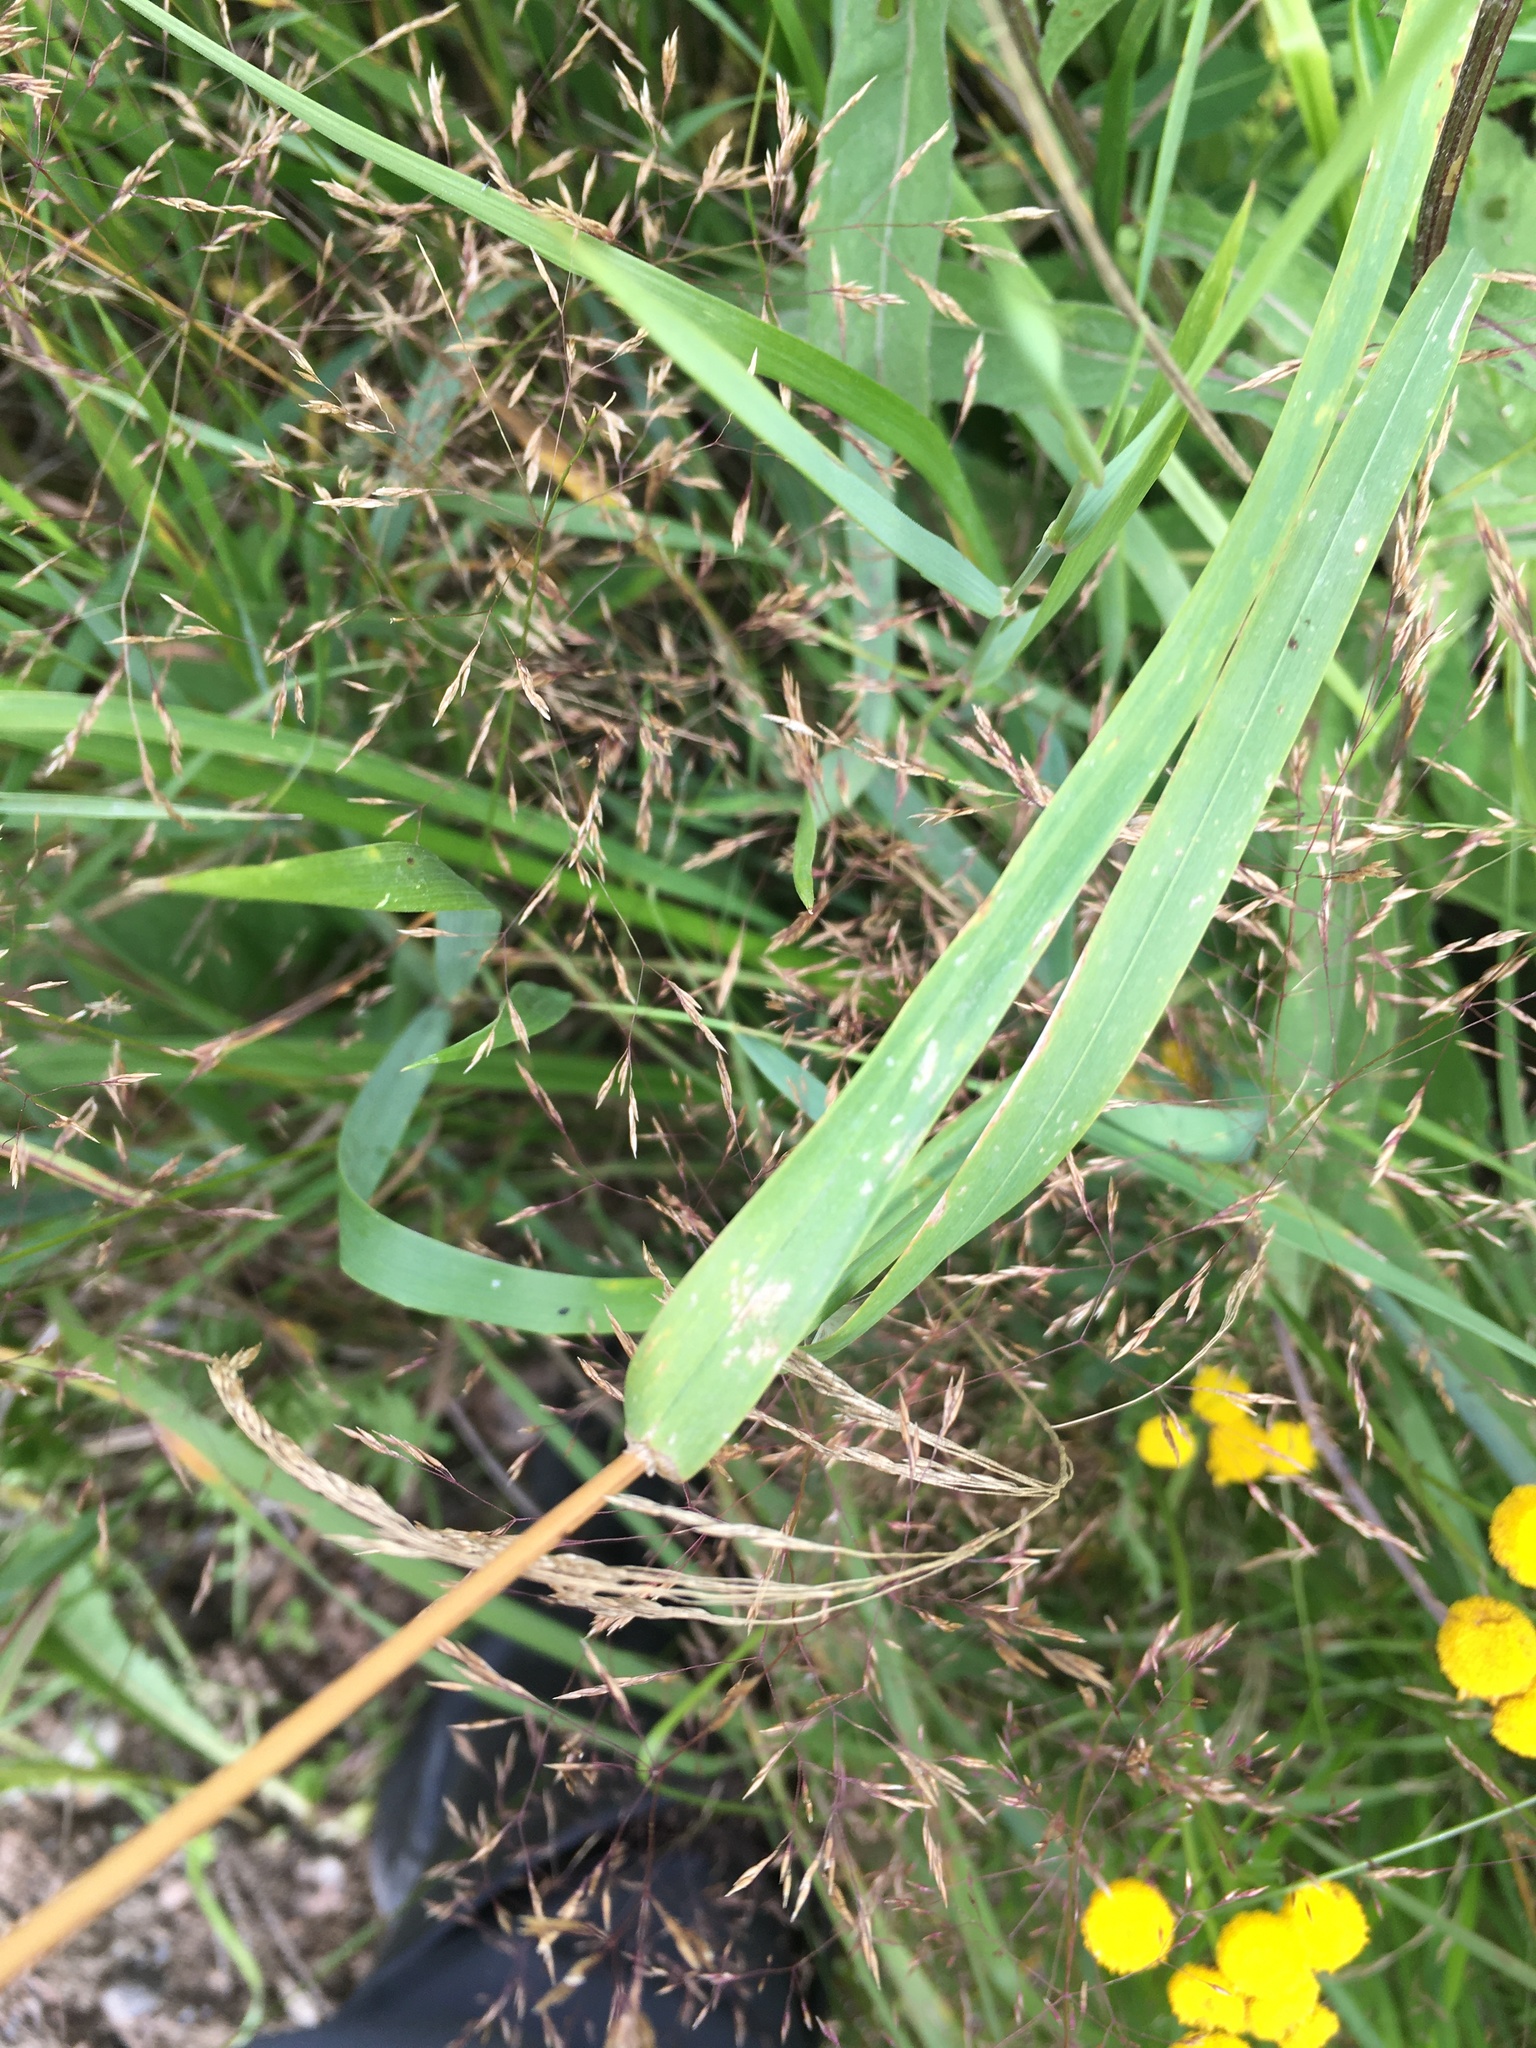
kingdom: Plantae
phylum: Tracheophyta
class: Liliopsida
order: Poales
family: Poaceae
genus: Dactylis
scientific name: Dactylis glomerata
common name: Orchardgrass
